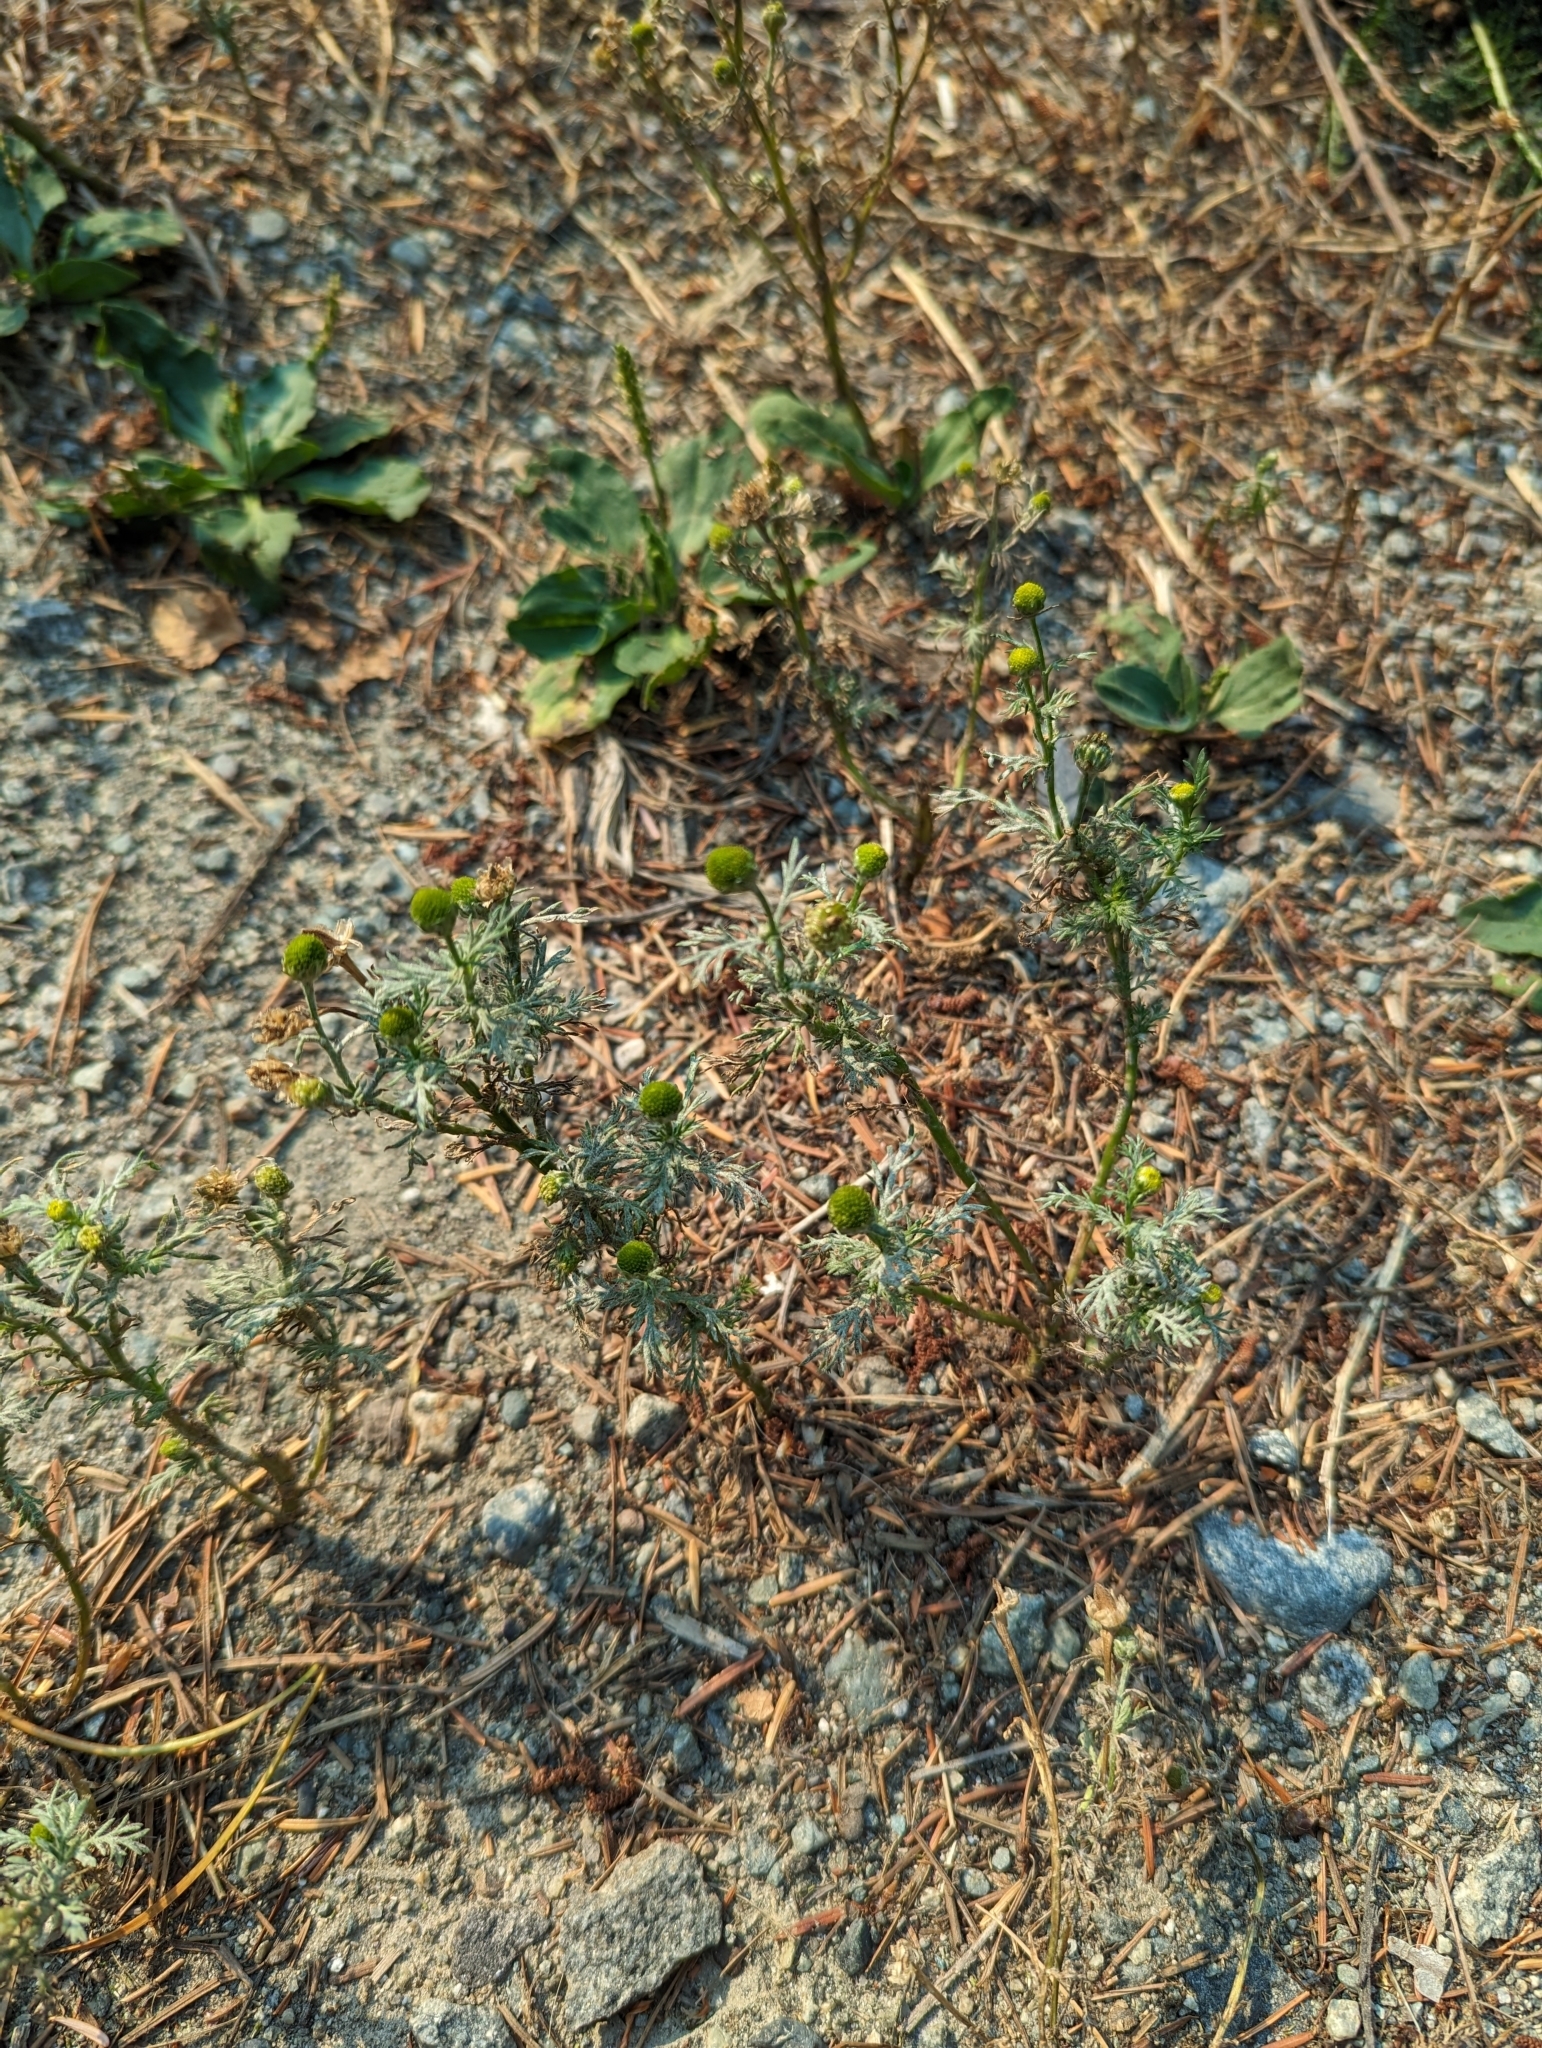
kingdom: Plantae
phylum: Tracheophyta
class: Magnoliopsida
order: Asterales
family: Asteraceae
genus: Matricaria
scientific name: Matricaria discoidea
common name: Disc mayweed
